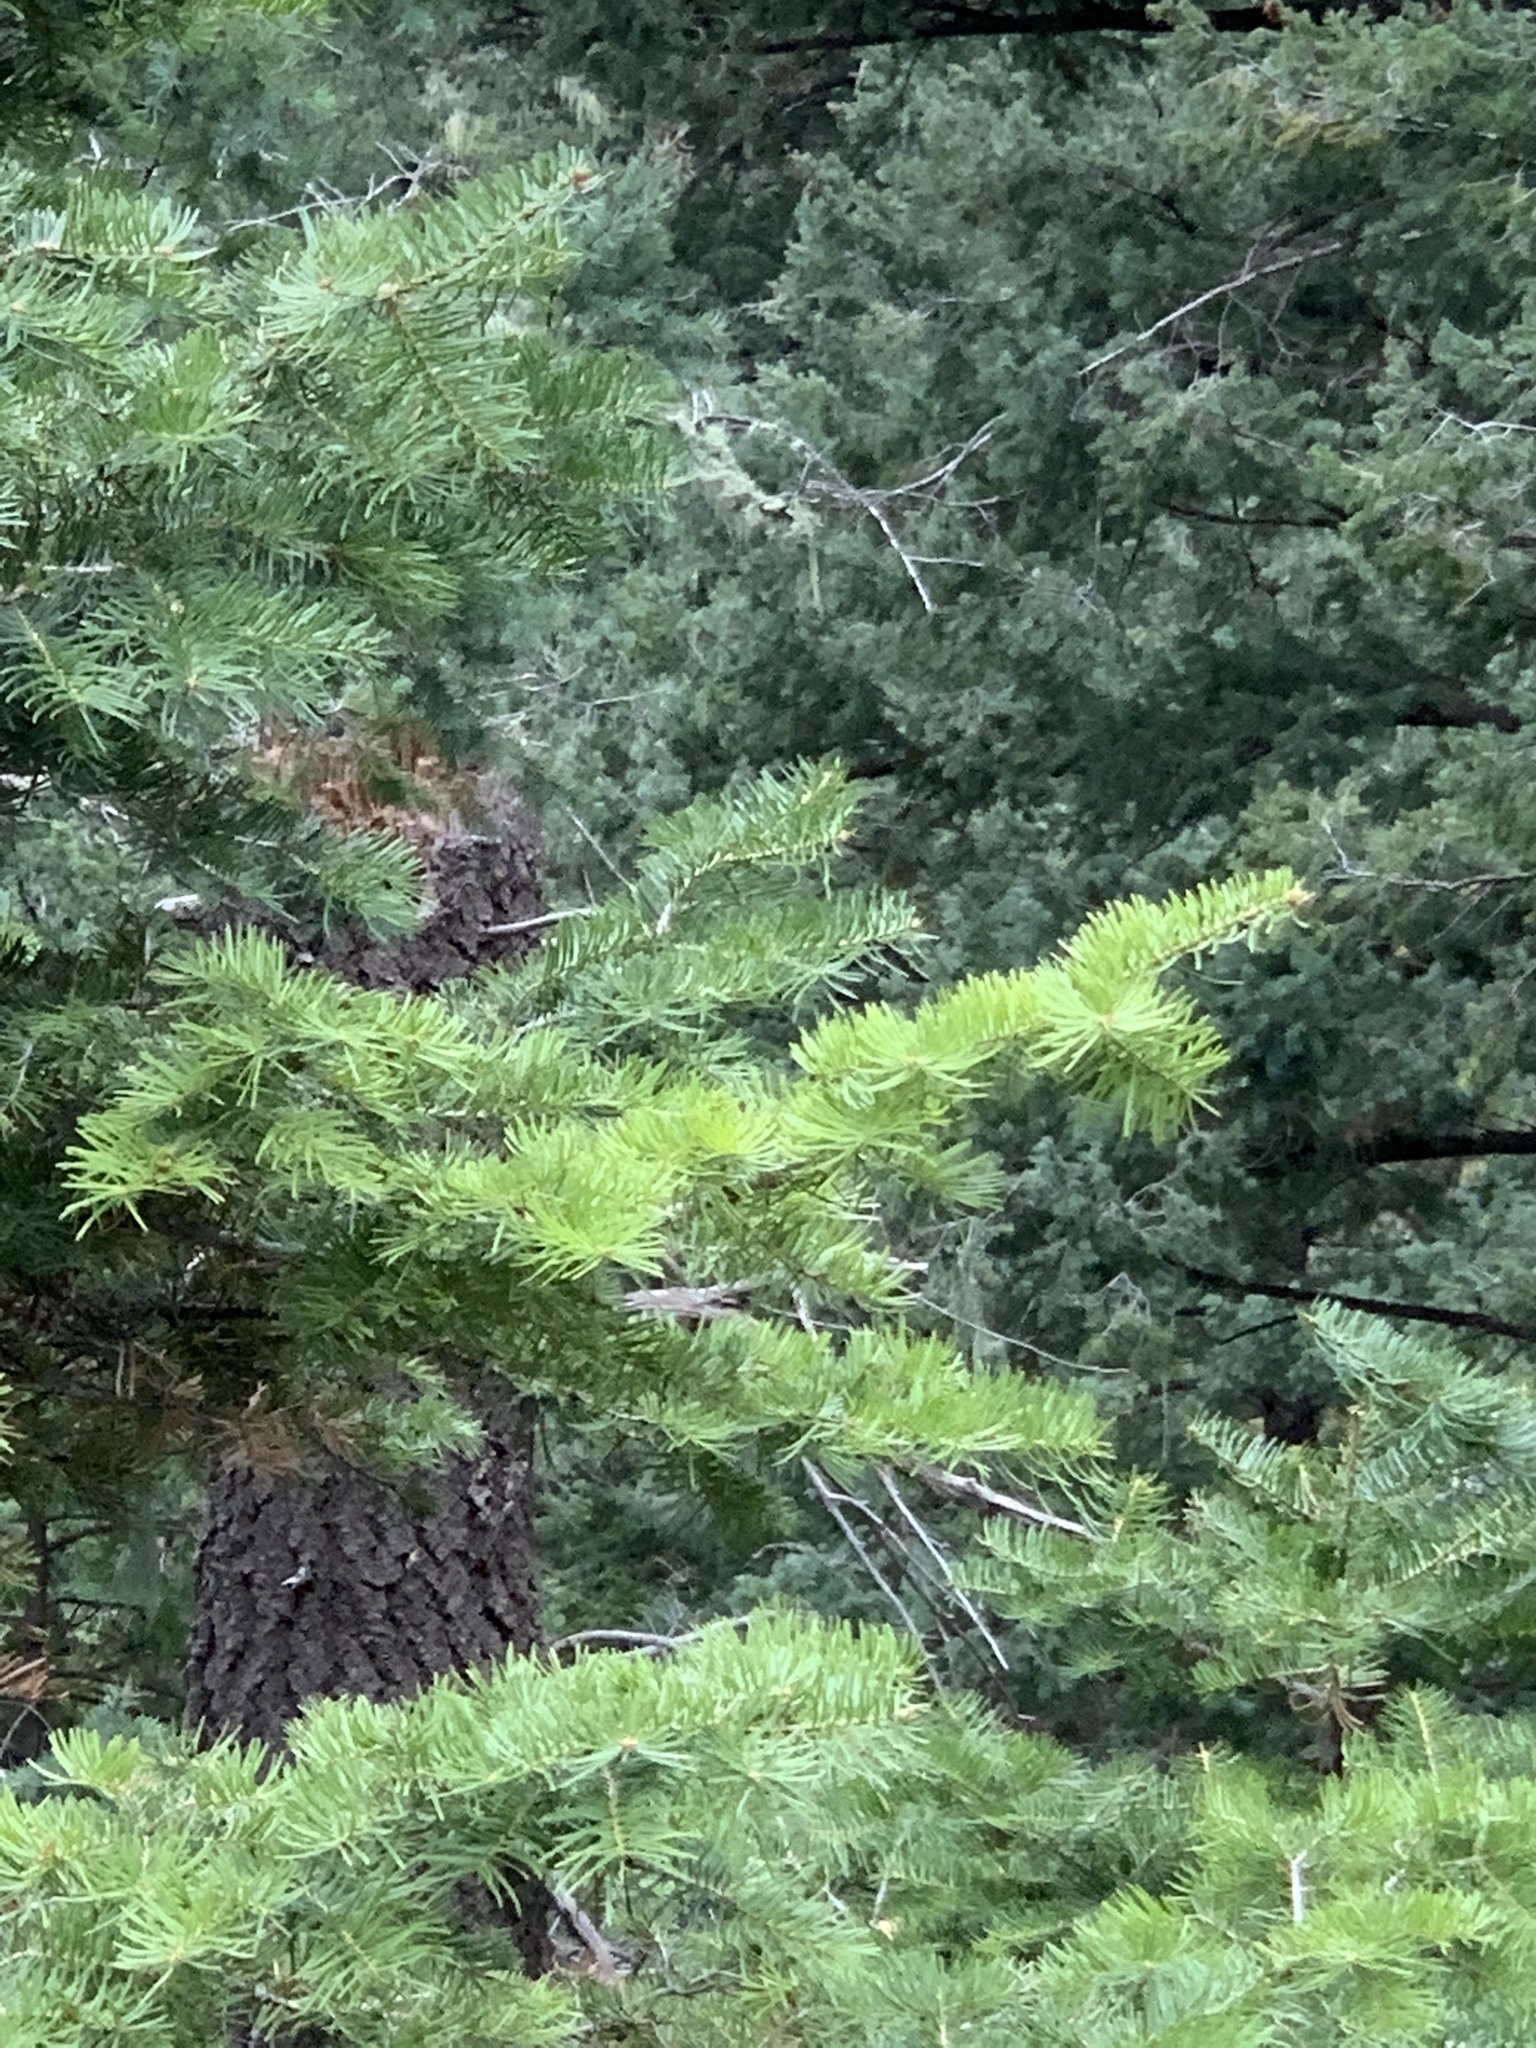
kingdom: Plantae
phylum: Tracheophyta
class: Pinopsida
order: Pinales
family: Pinaceae
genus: Abies
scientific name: Abies concolor
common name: Colorado fir
